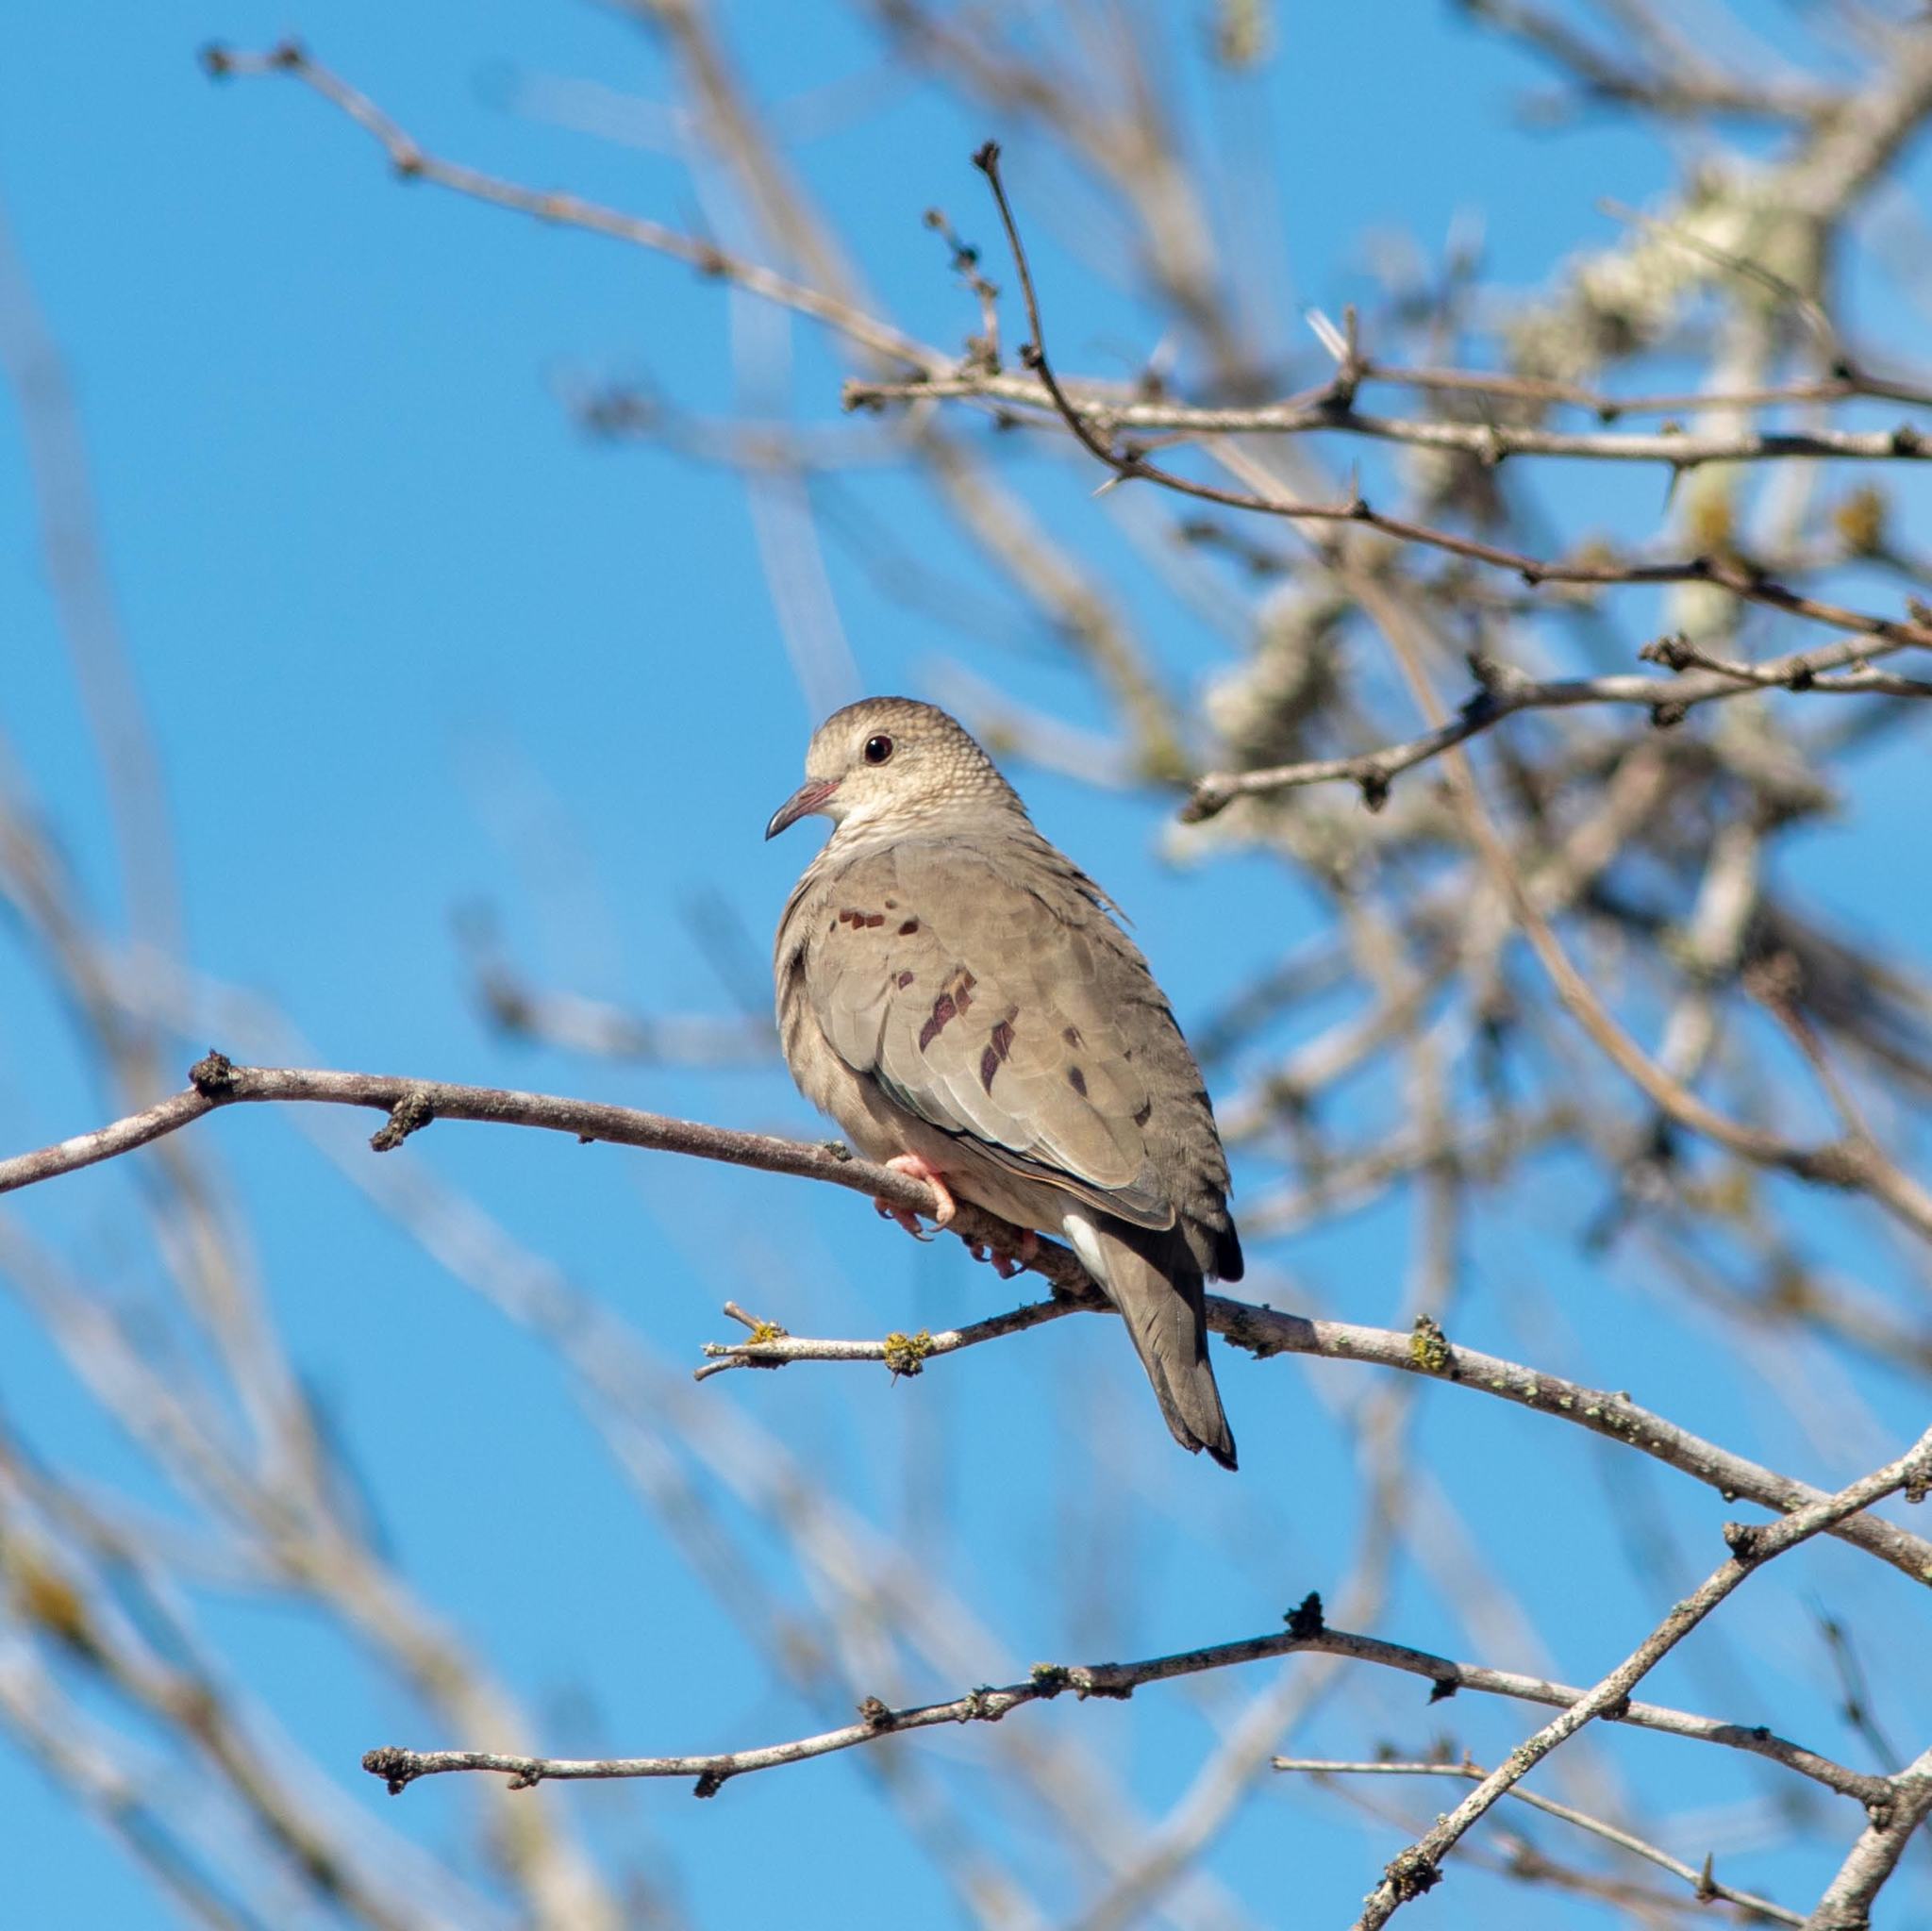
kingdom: Animalia
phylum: Chordata
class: Aves
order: Columbiformes
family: Columbidae
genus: Columbina
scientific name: Columbina passerina
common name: Common ground-dove
